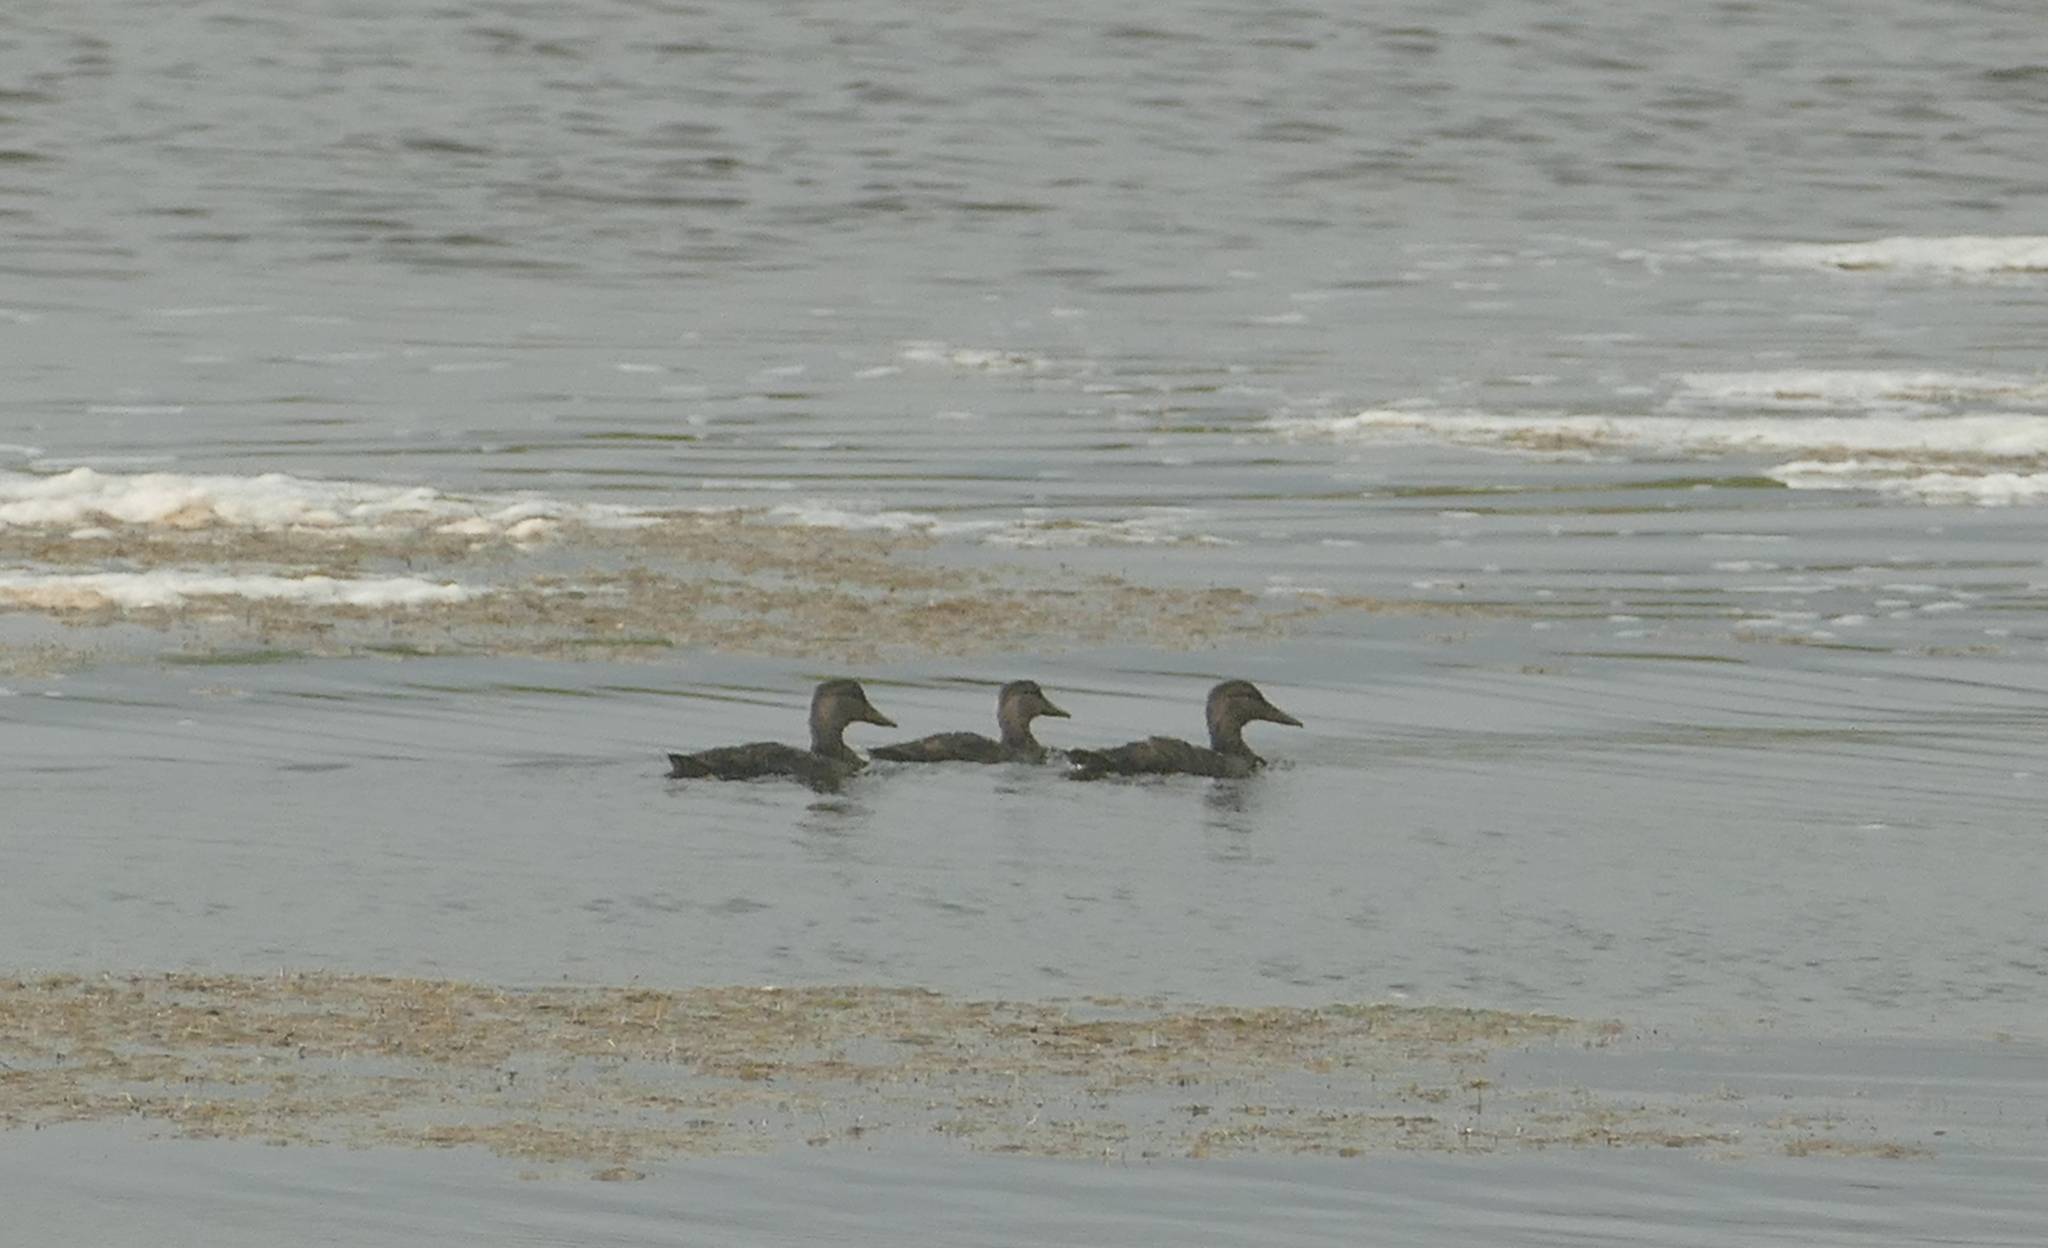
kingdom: Animalia
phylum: Chordata
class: Aves
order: Anseriformes
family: Anatidae
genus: Anas
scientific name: Anas rubripes
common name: American black duck
